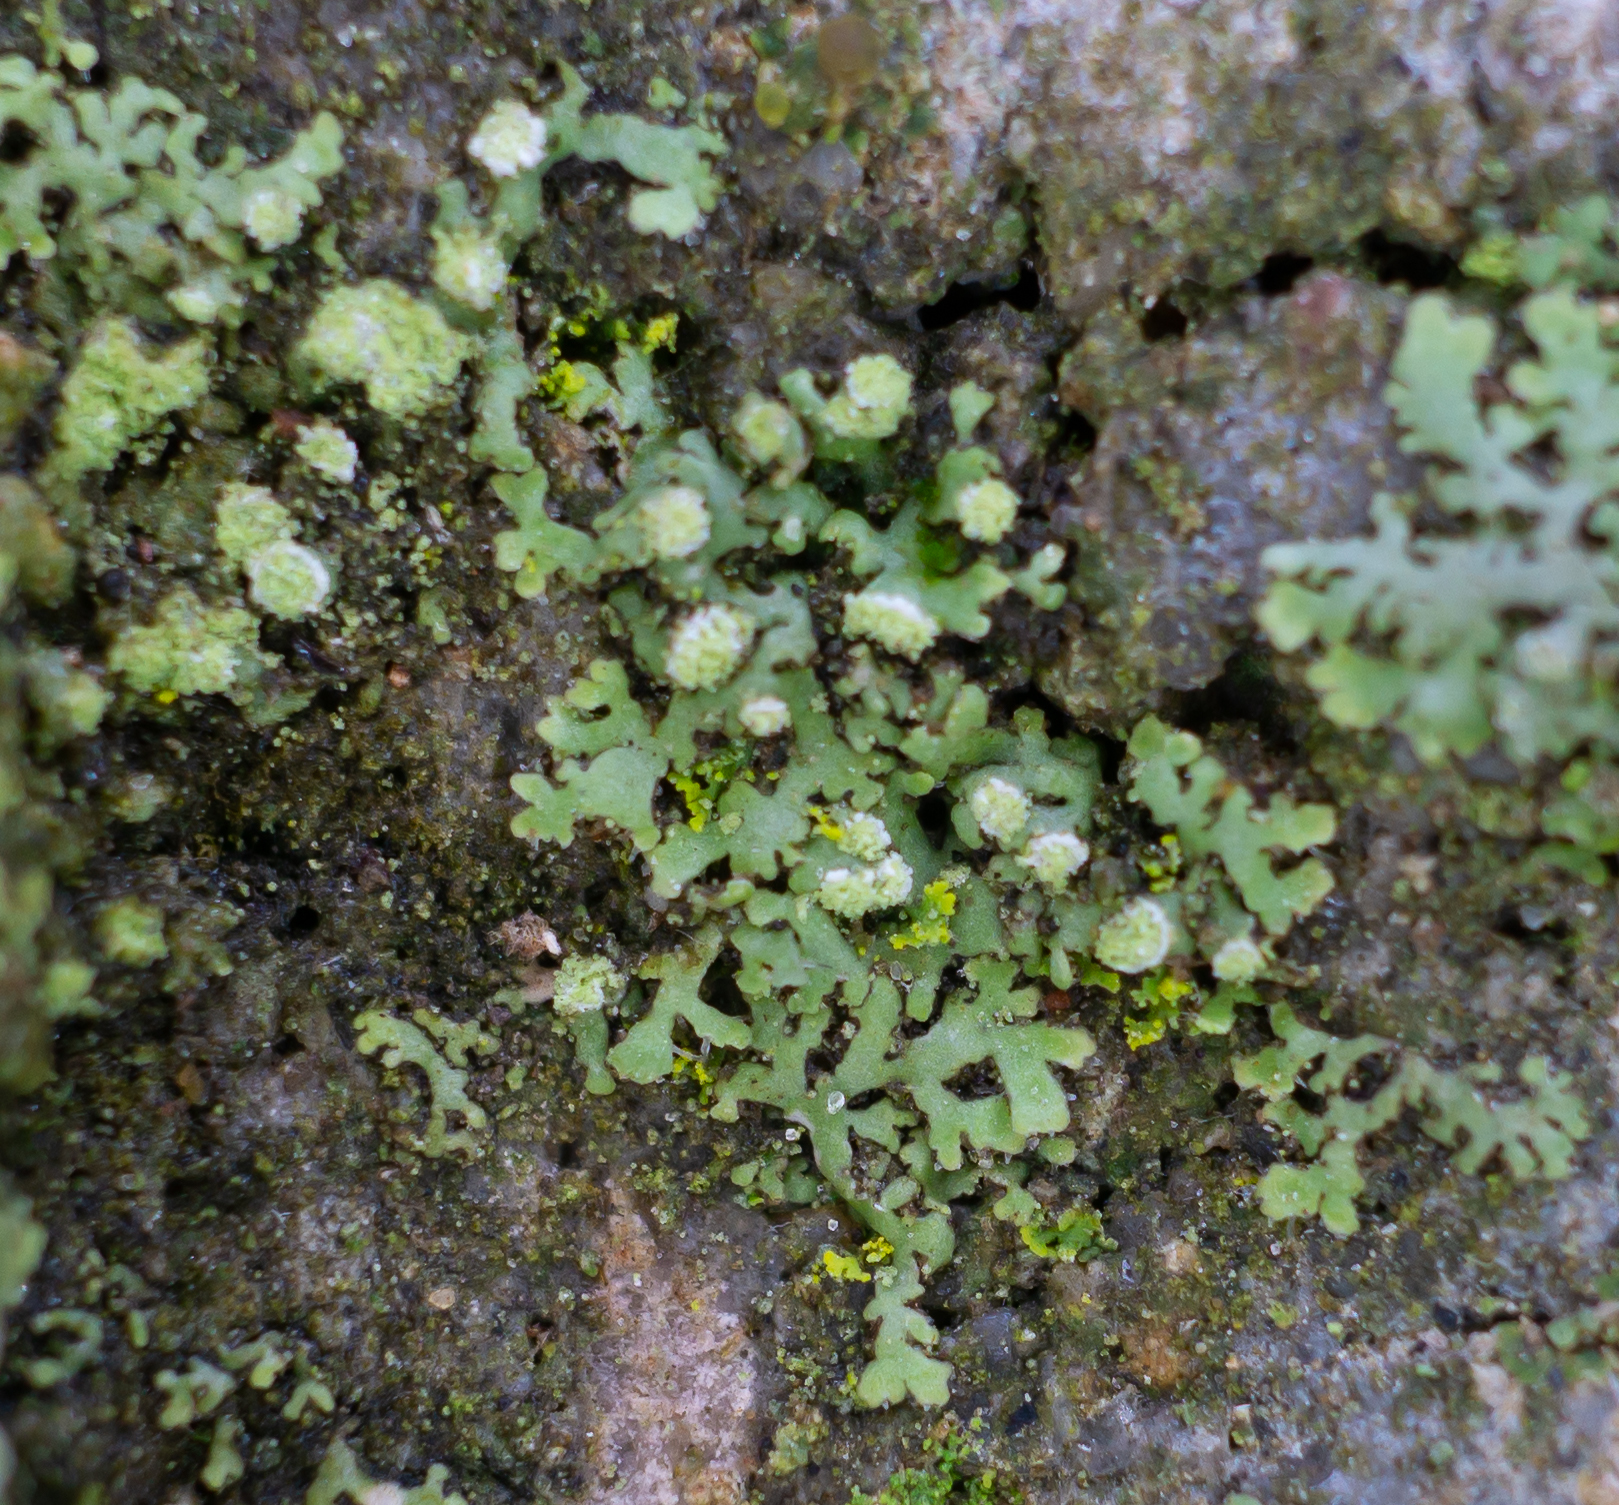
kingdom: Fungi
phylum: Ascomycota
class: Lecanoromycetes
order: Caliciales
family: Physciaceae
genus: Phaeophyscia
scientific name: Phaeophyscia pusilloides
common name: Pom-pom shadow lichen
